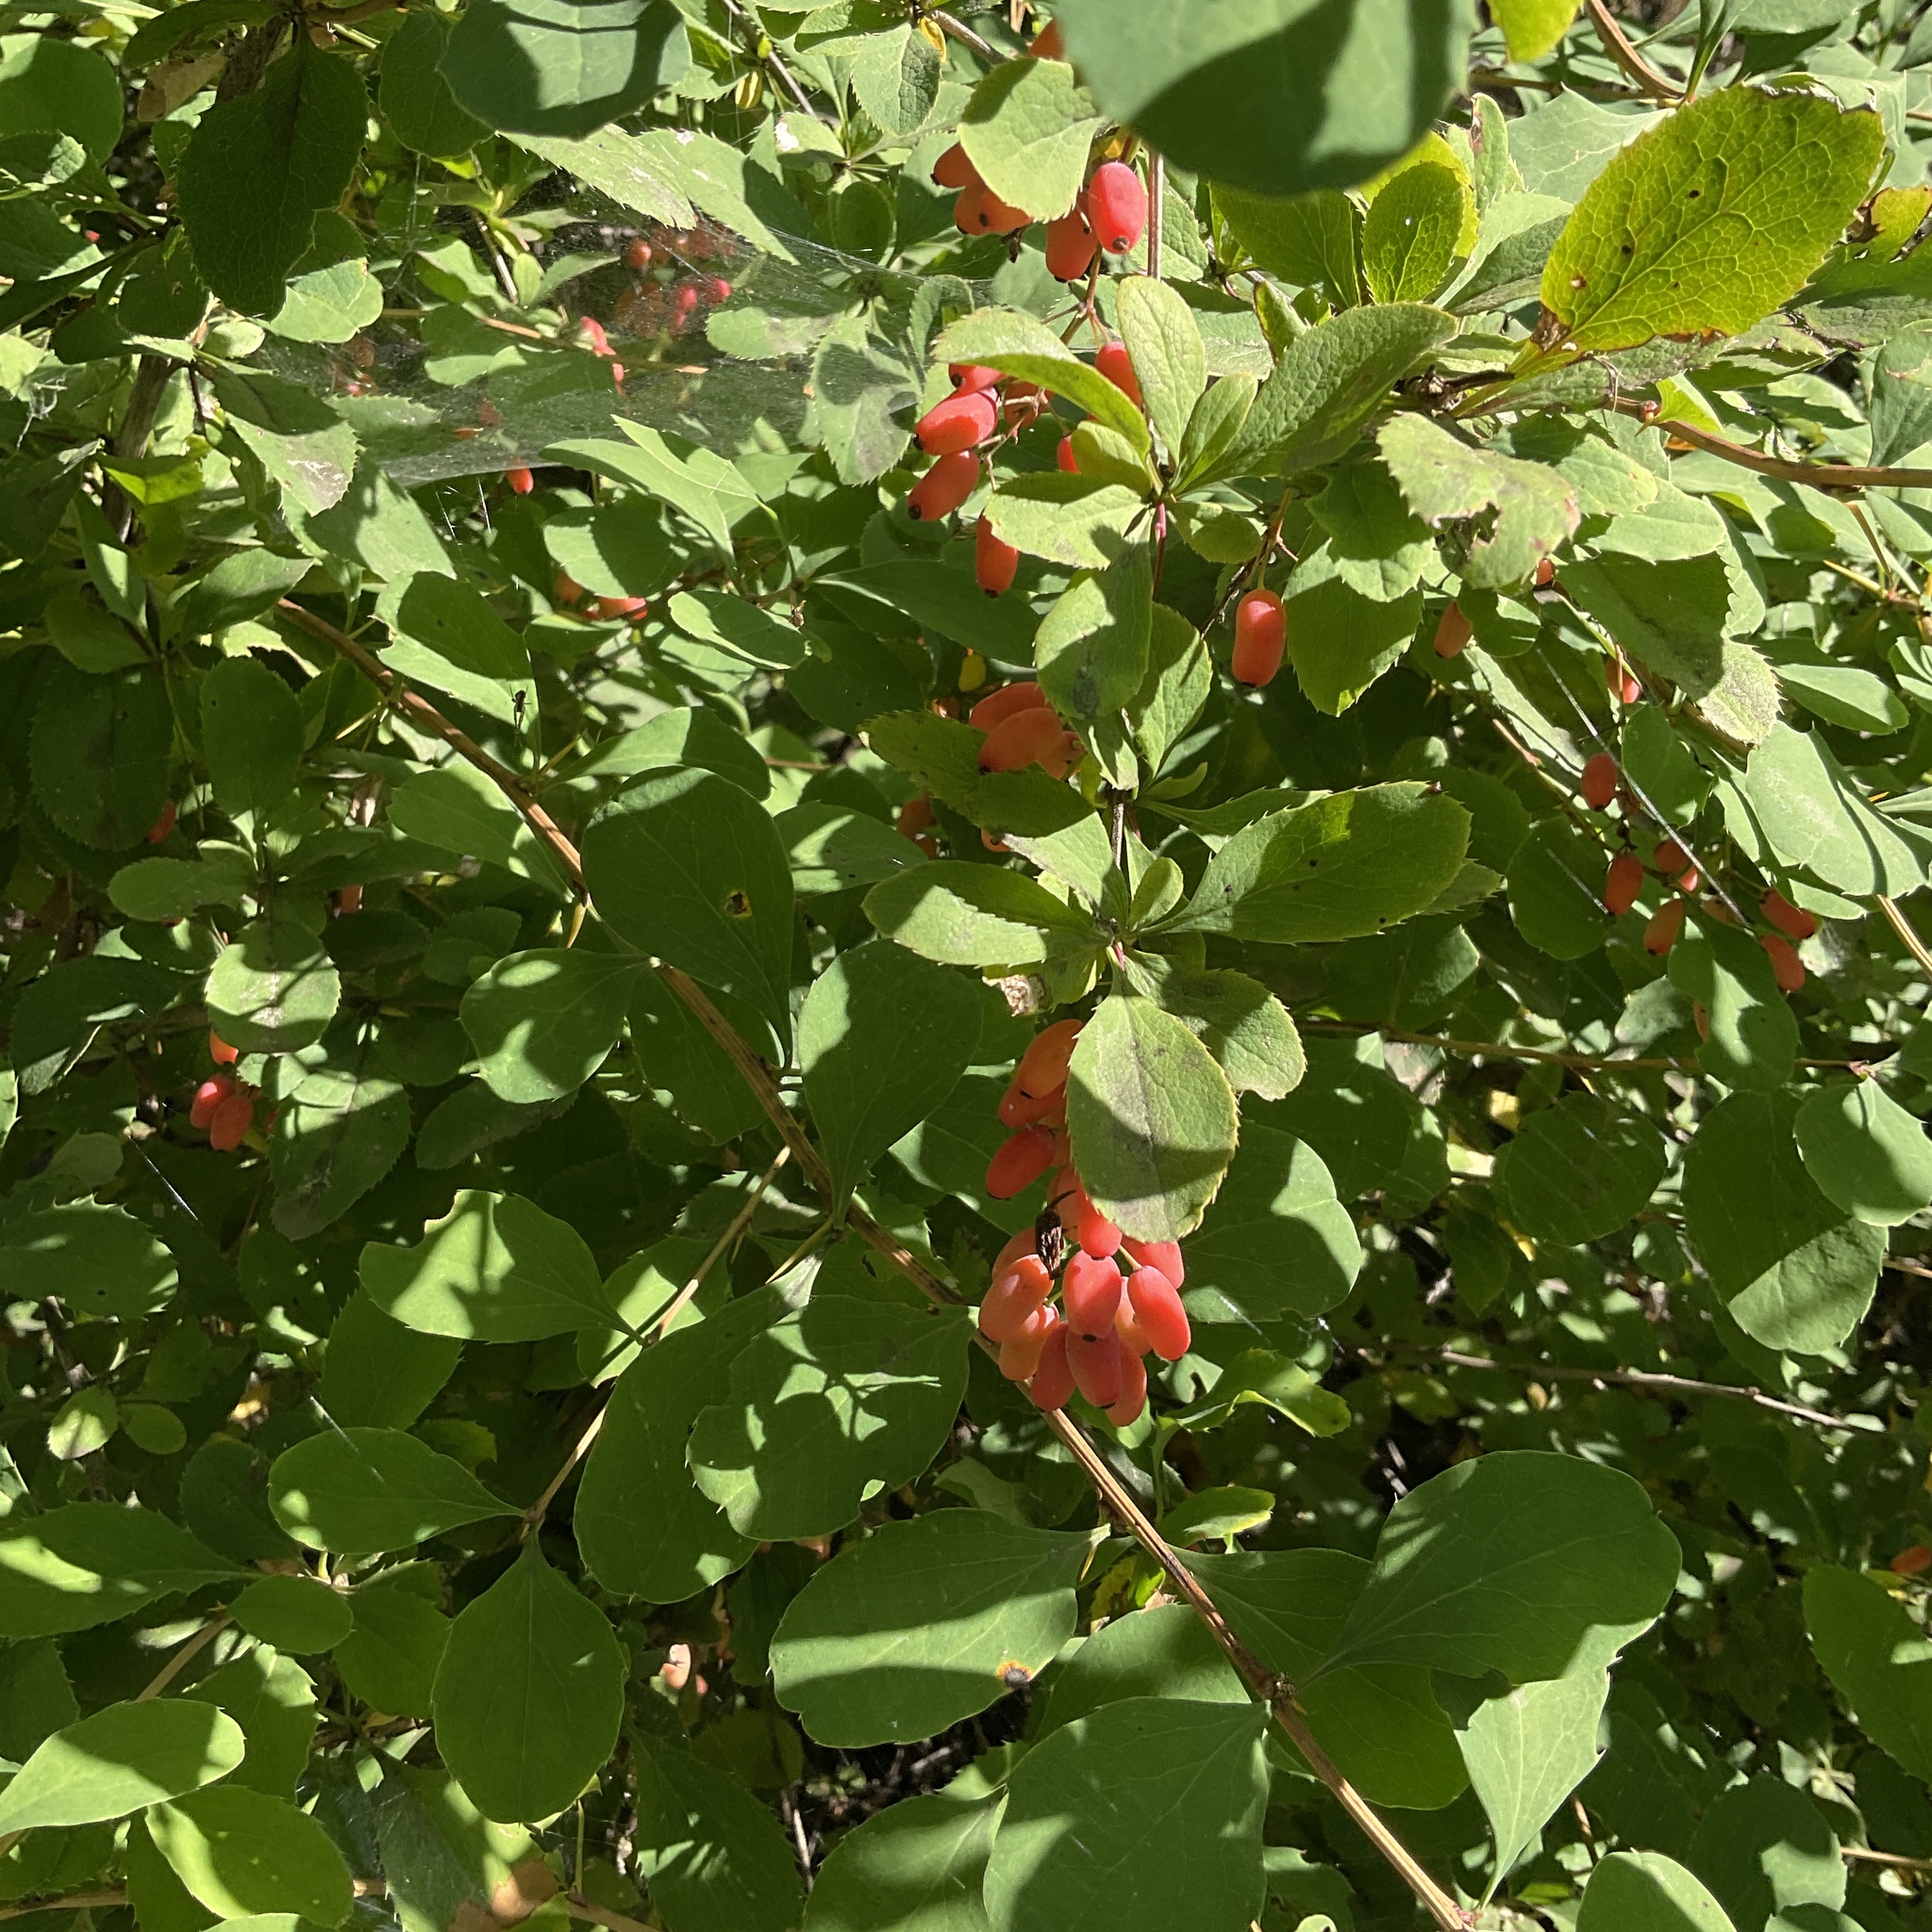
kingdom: Plantae
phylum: Tracheophyta
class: Magnoliopsida
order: Ranunculales
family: Berberidaceae
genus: Berberis
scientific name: Berberis vulgaris
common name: Barberry
